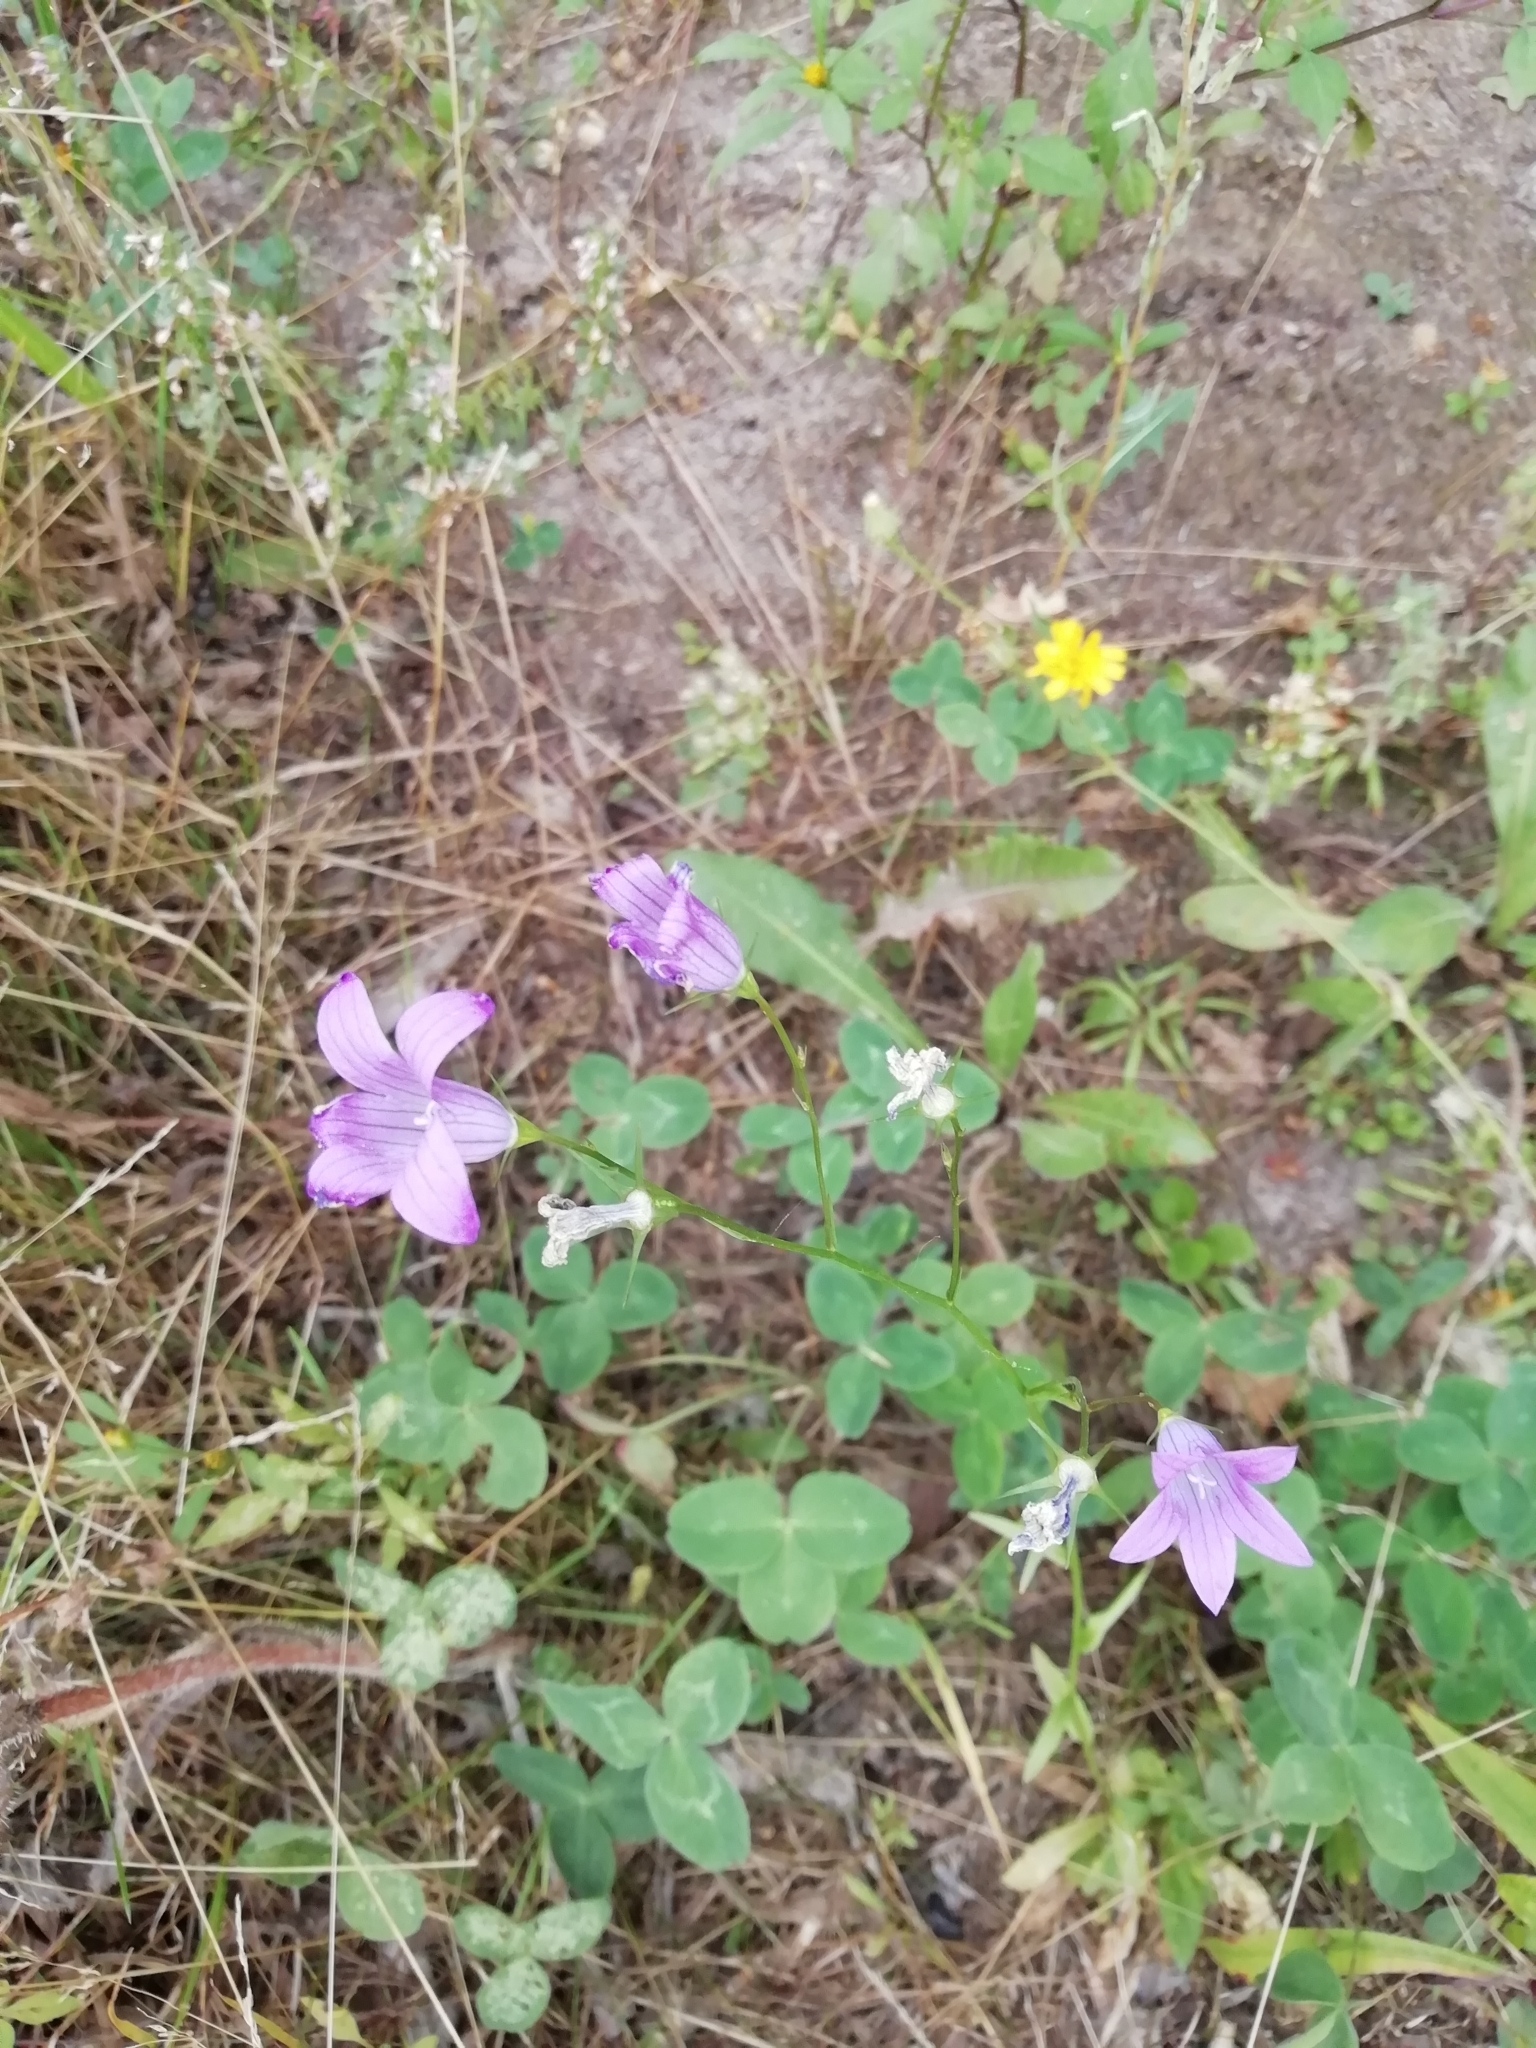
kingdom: Plantae
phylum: Tracheophyta
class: Magnoliopsida
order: Asterales
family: Campanulaceae
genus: Campanula
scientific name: Campanula patula
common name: Spreading bellflower
